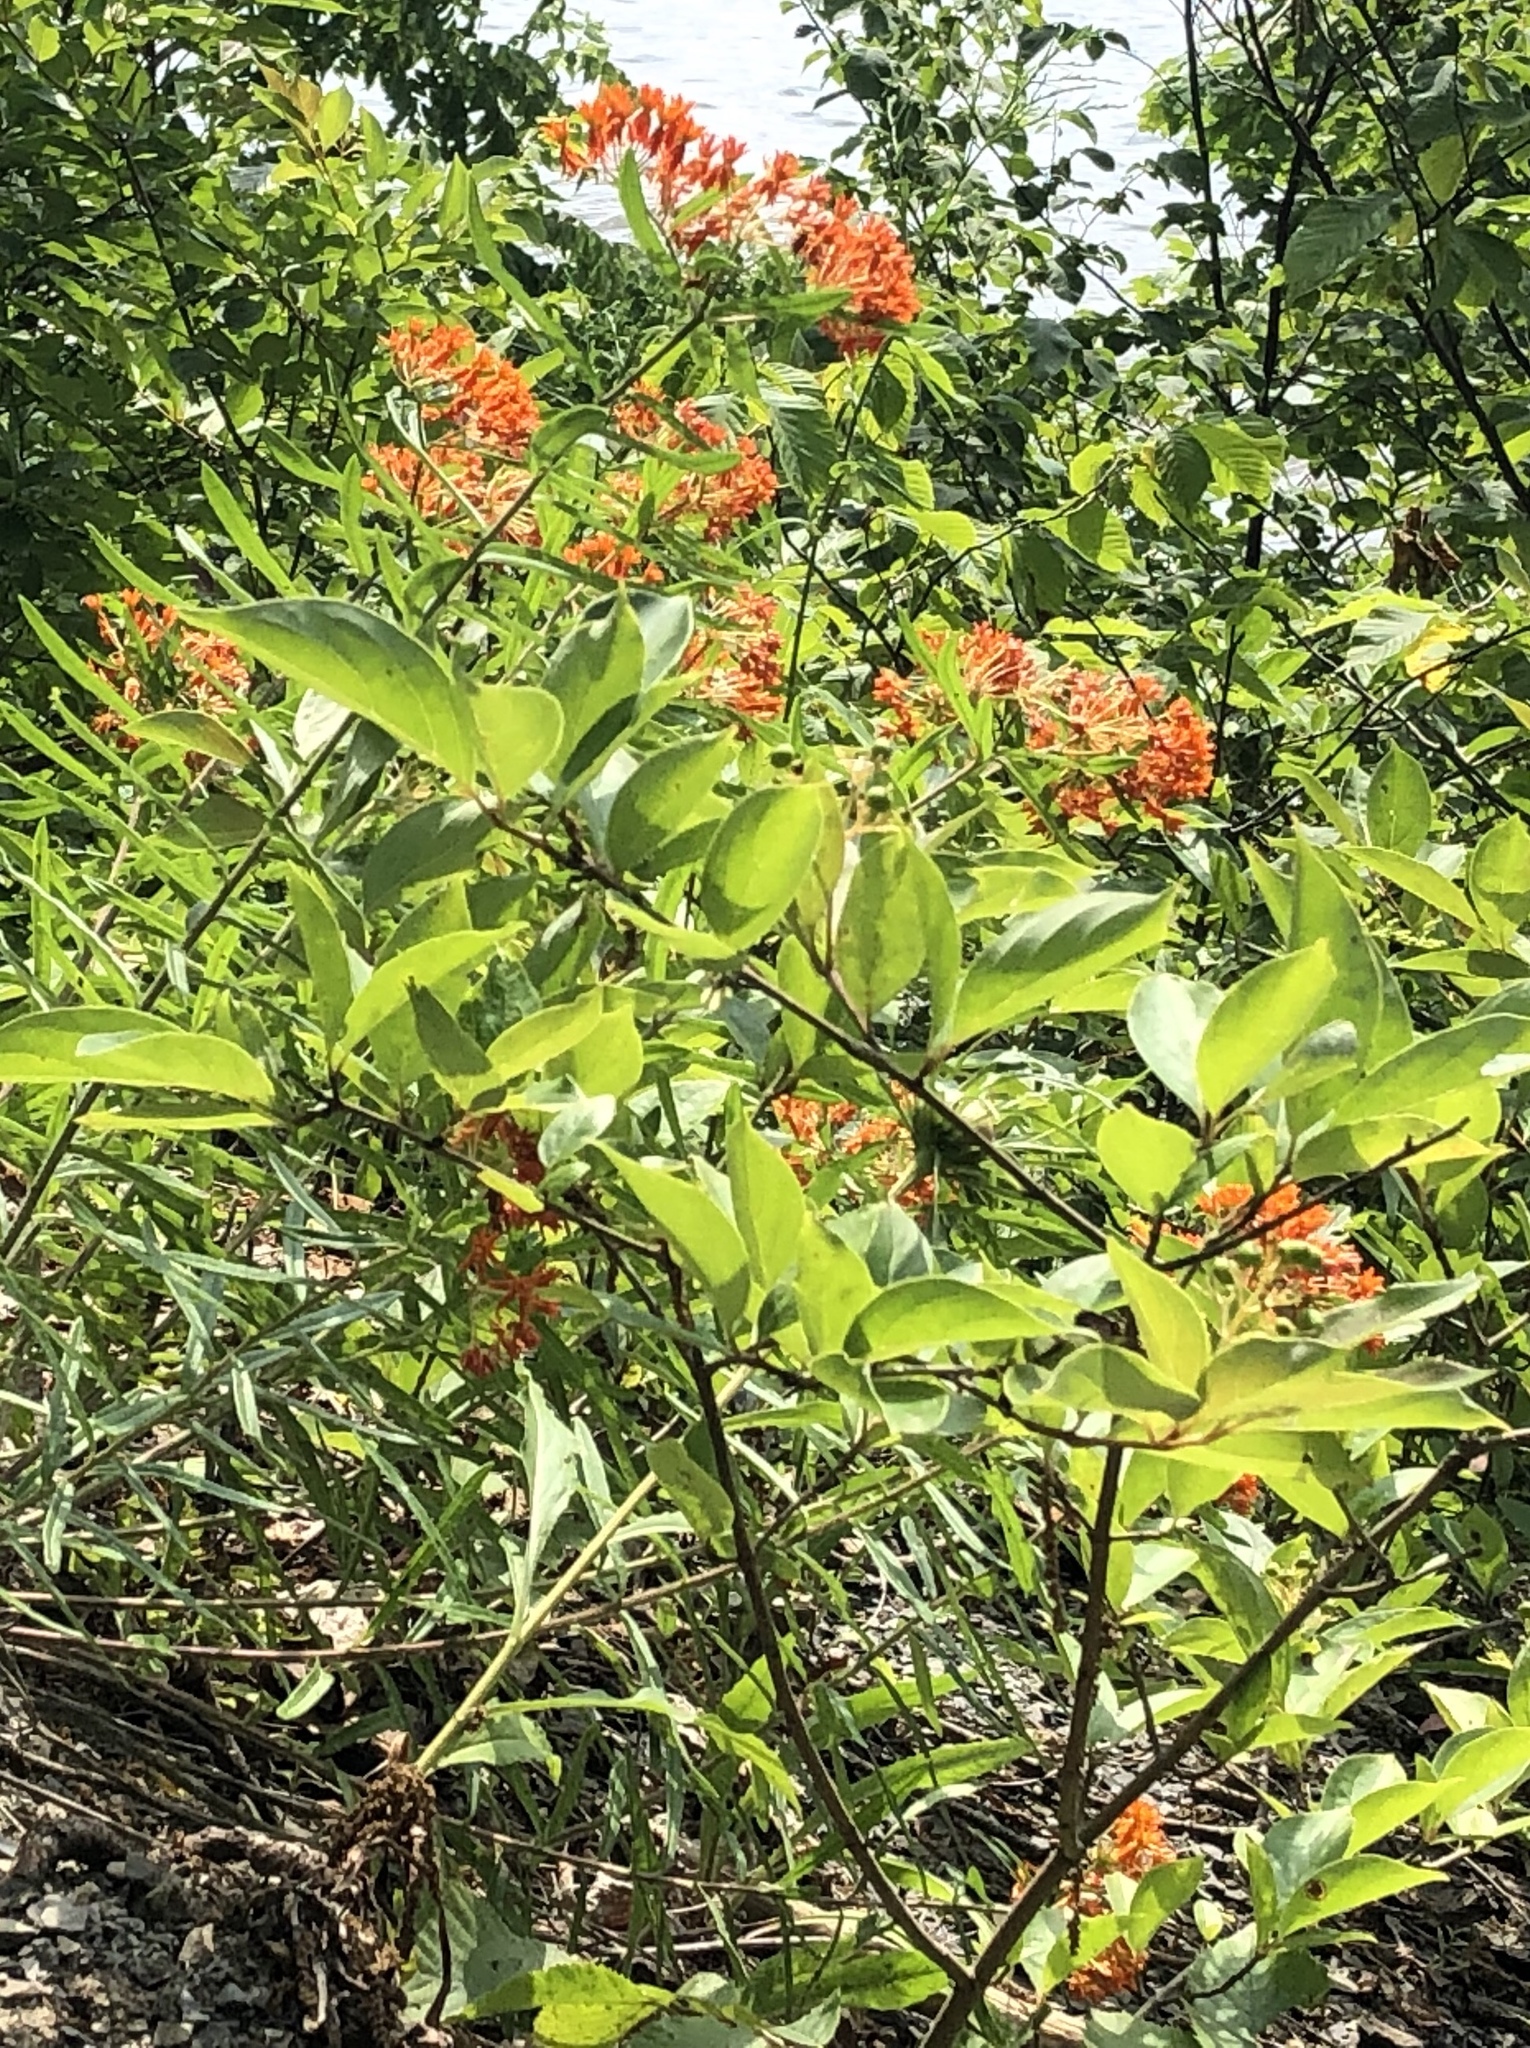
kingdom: Plantae
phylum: Tracheophyta
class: Magnoliopsida
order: Gentianales
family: Apocynaceae
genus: Asclepias
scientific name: Asclepias tuberosa
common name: Butterfly milkweed
